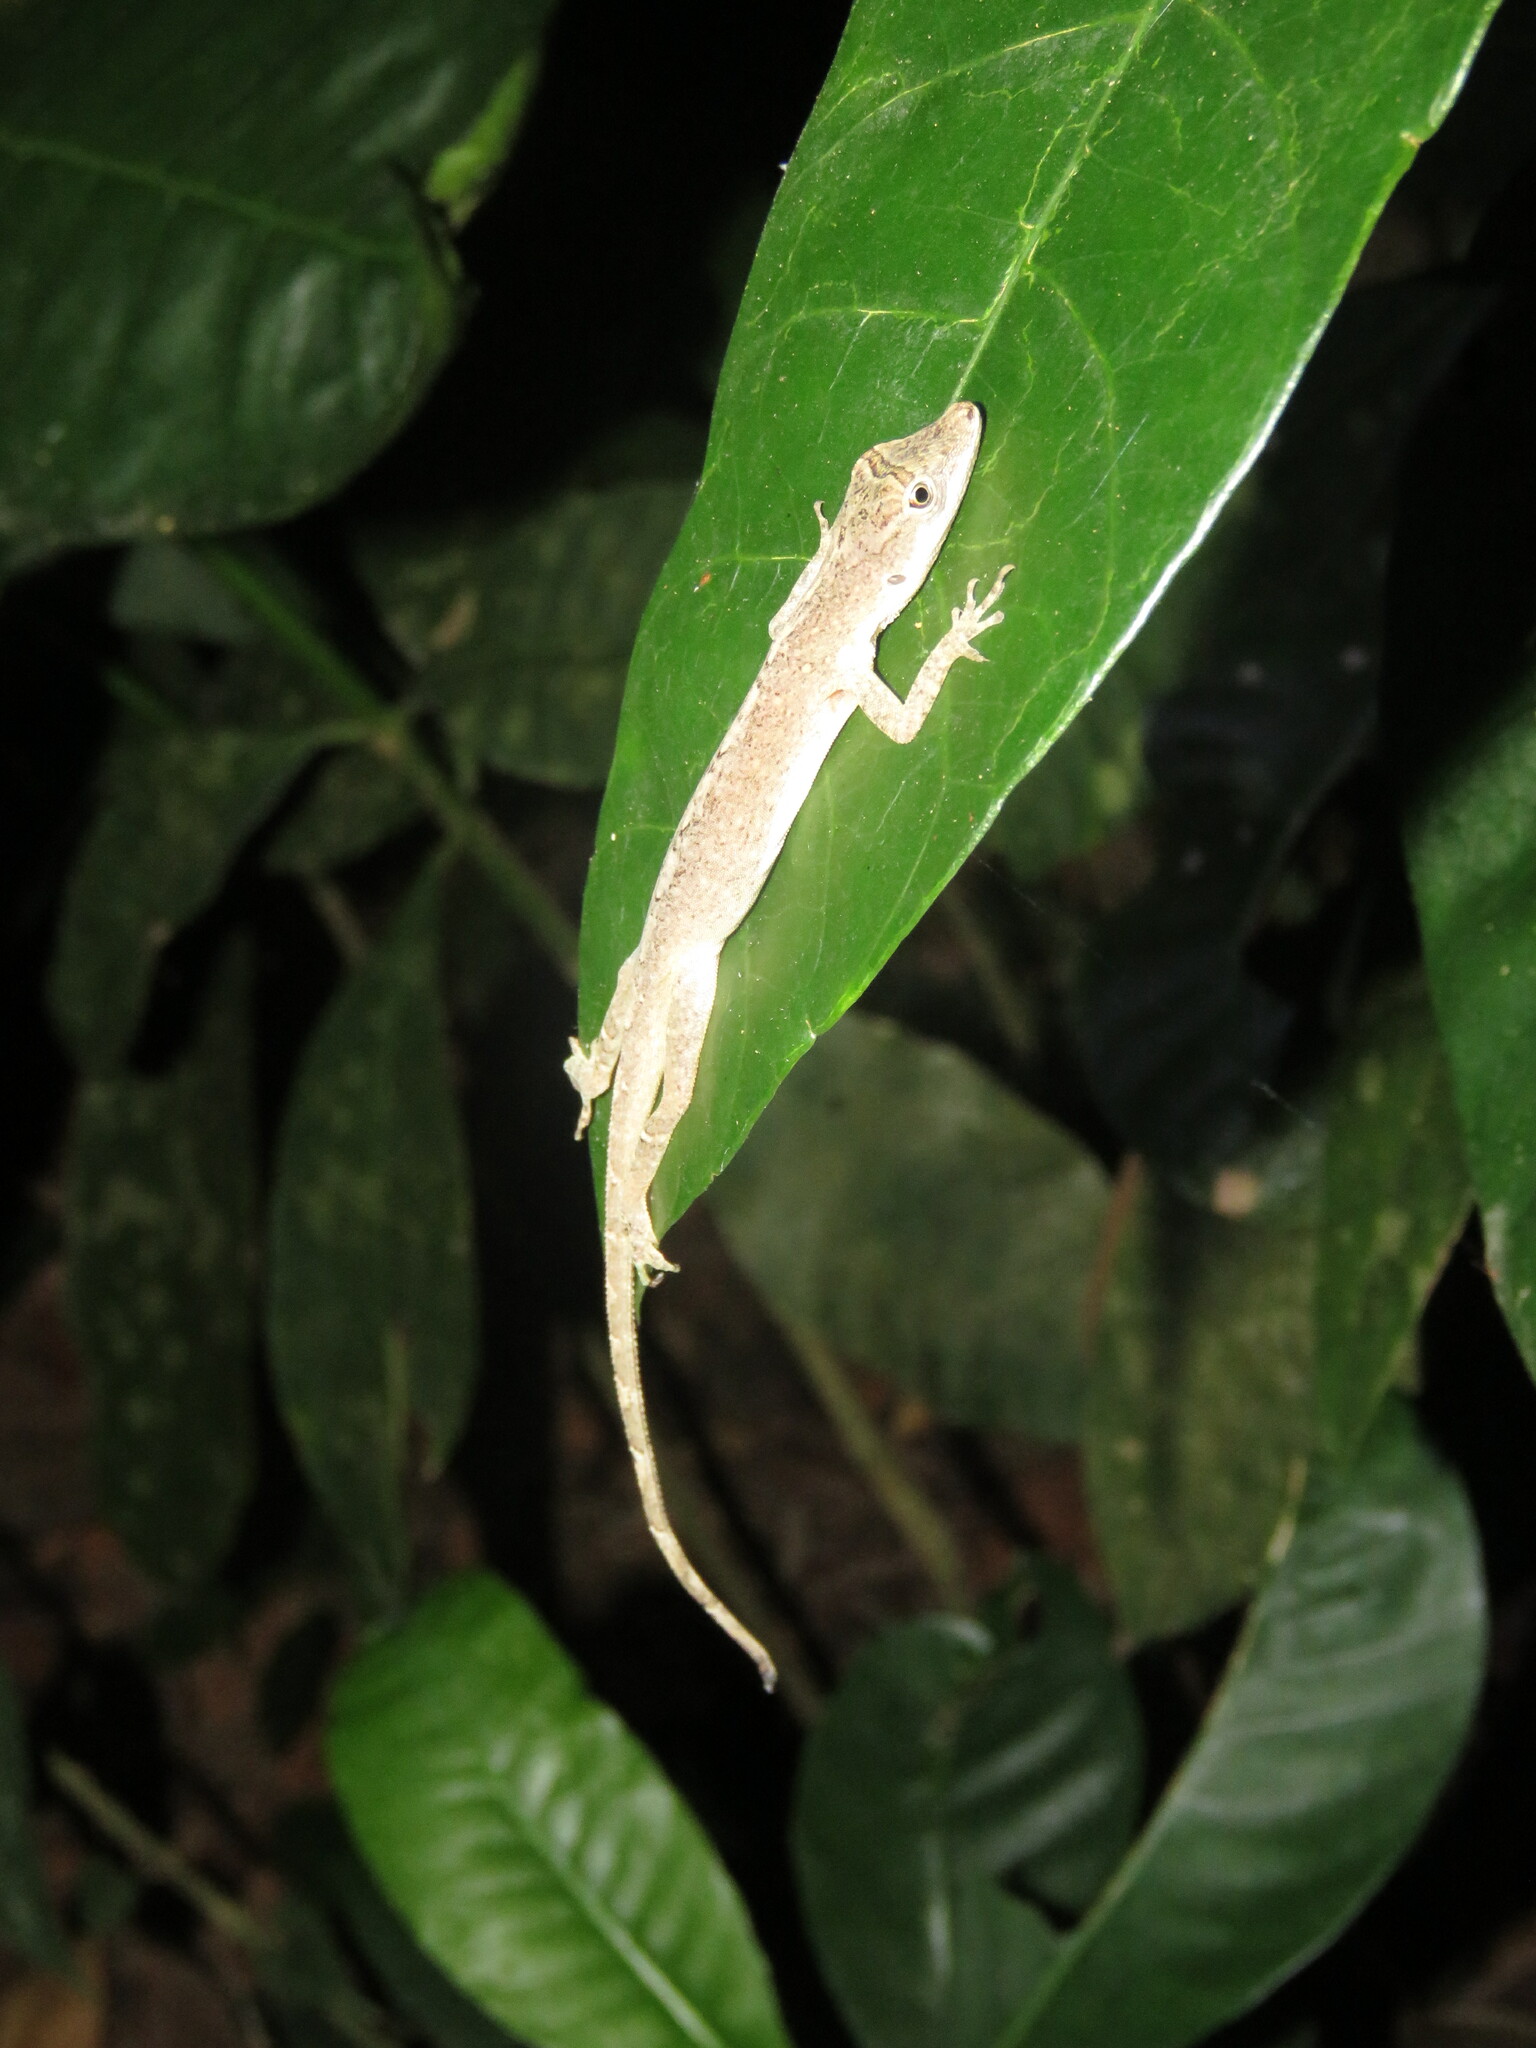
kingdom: Animalia
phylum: Chordata
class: Squamata
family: Dactyloidae
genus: Anolis
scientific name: Anolis fuscoauratus
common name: Brown-eared anole
